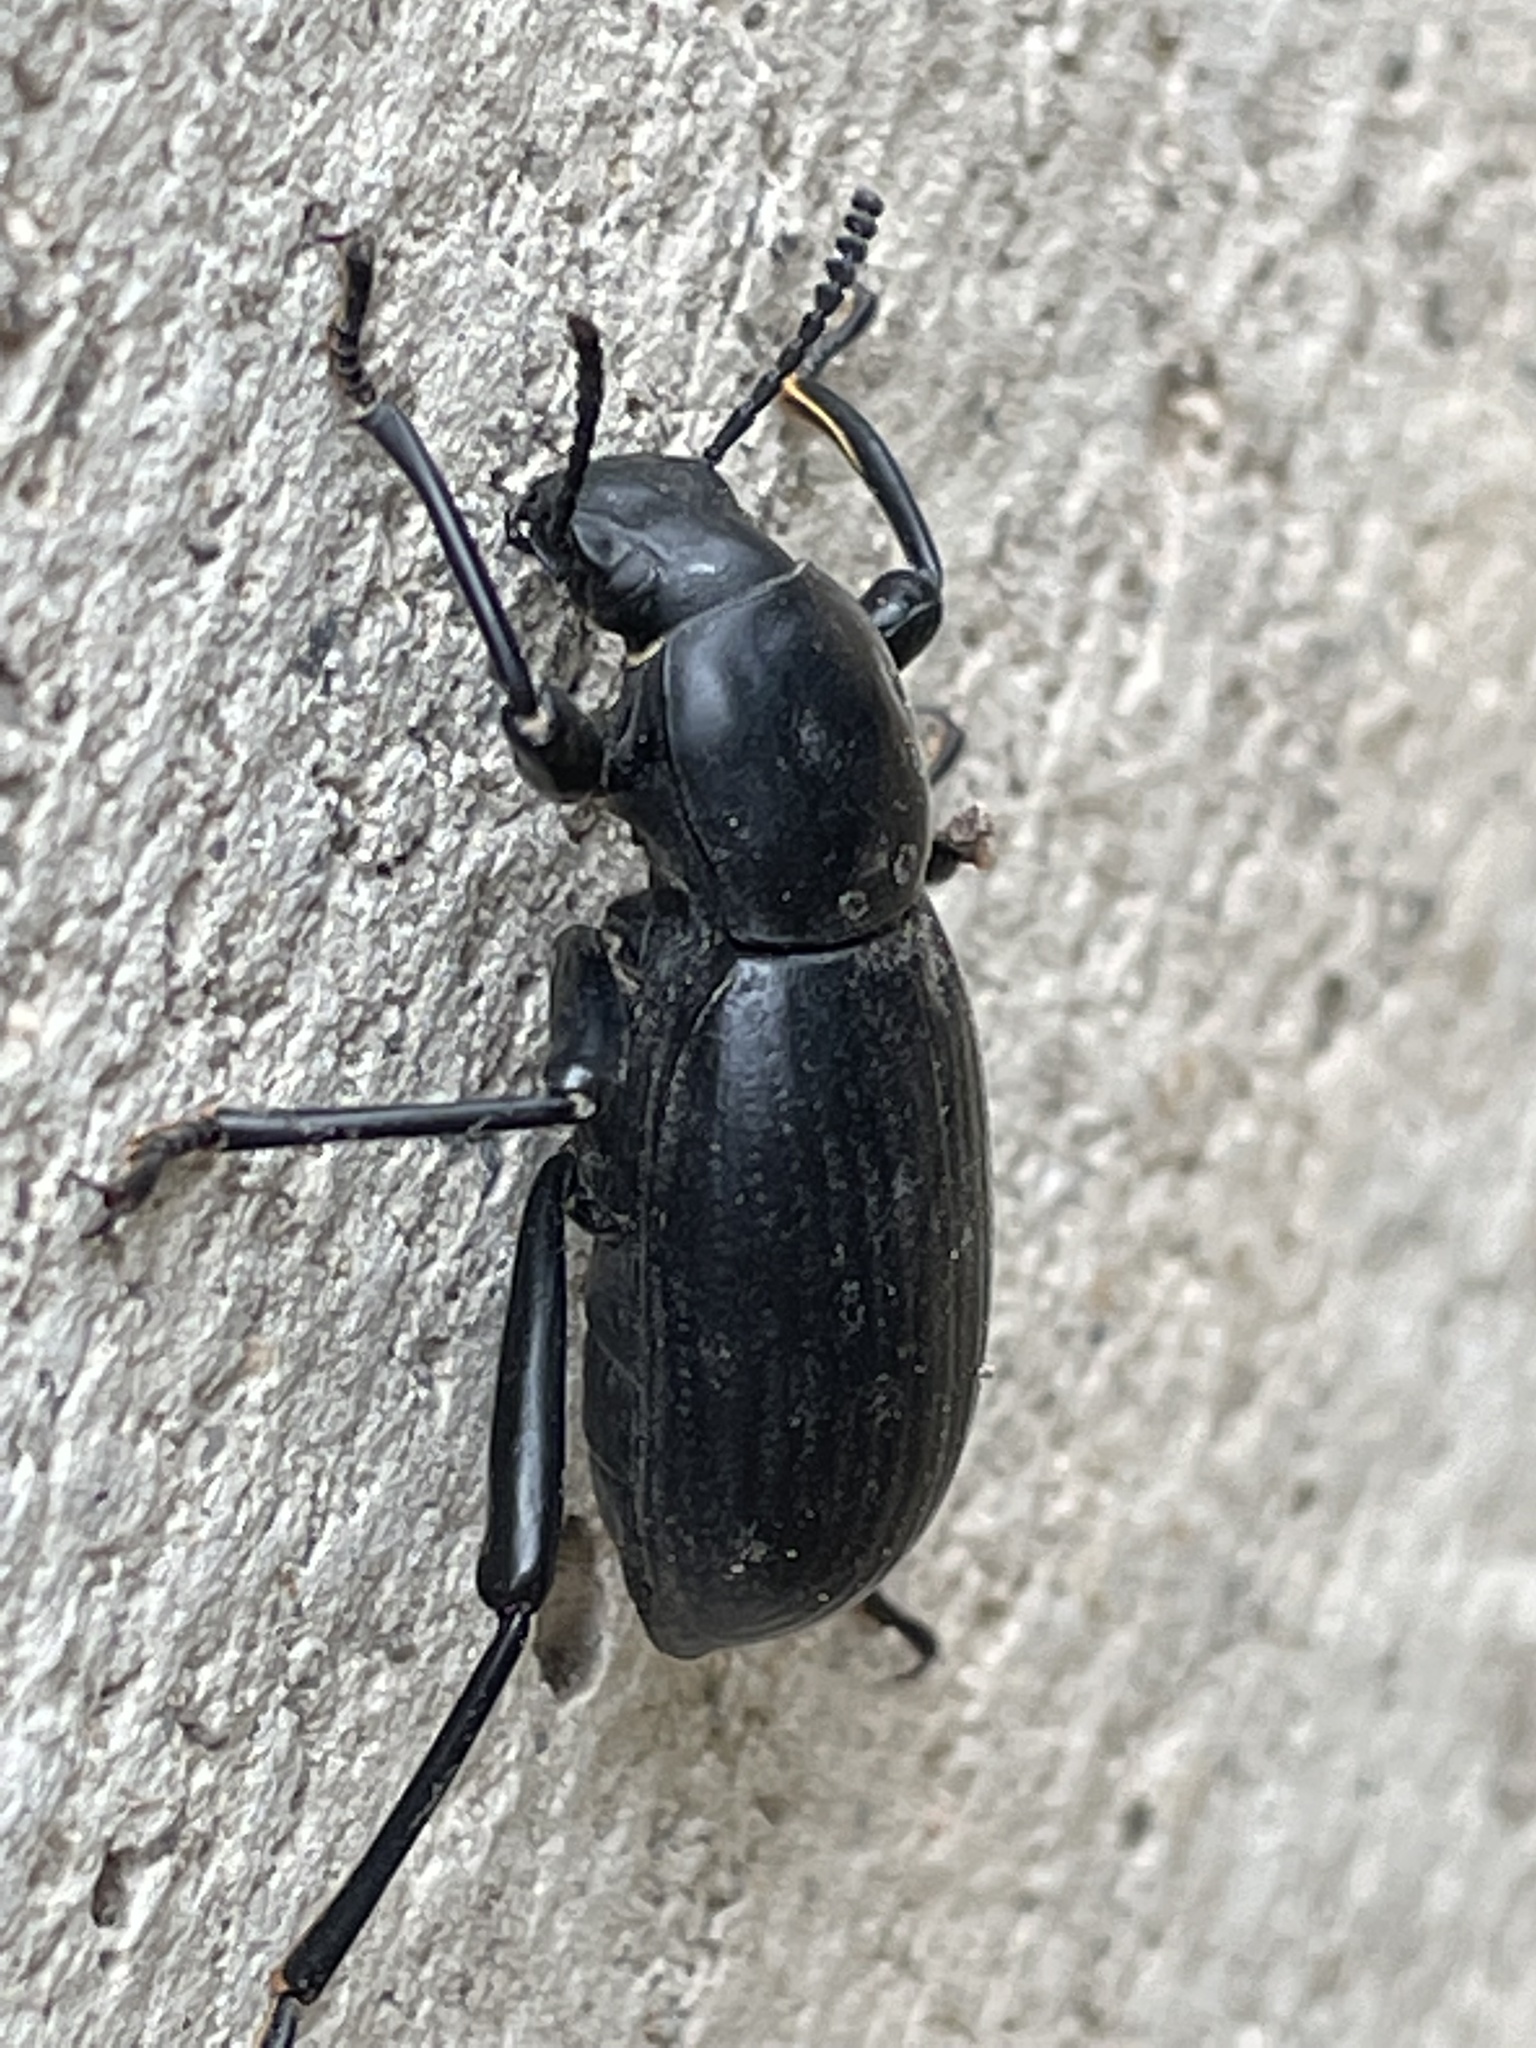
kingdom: Animalia
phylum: Arthropoda
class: Insecta
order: Coleoptera
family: Tenebrionidae
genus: Coelocnemis
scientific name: Coelocnemis sulcata
